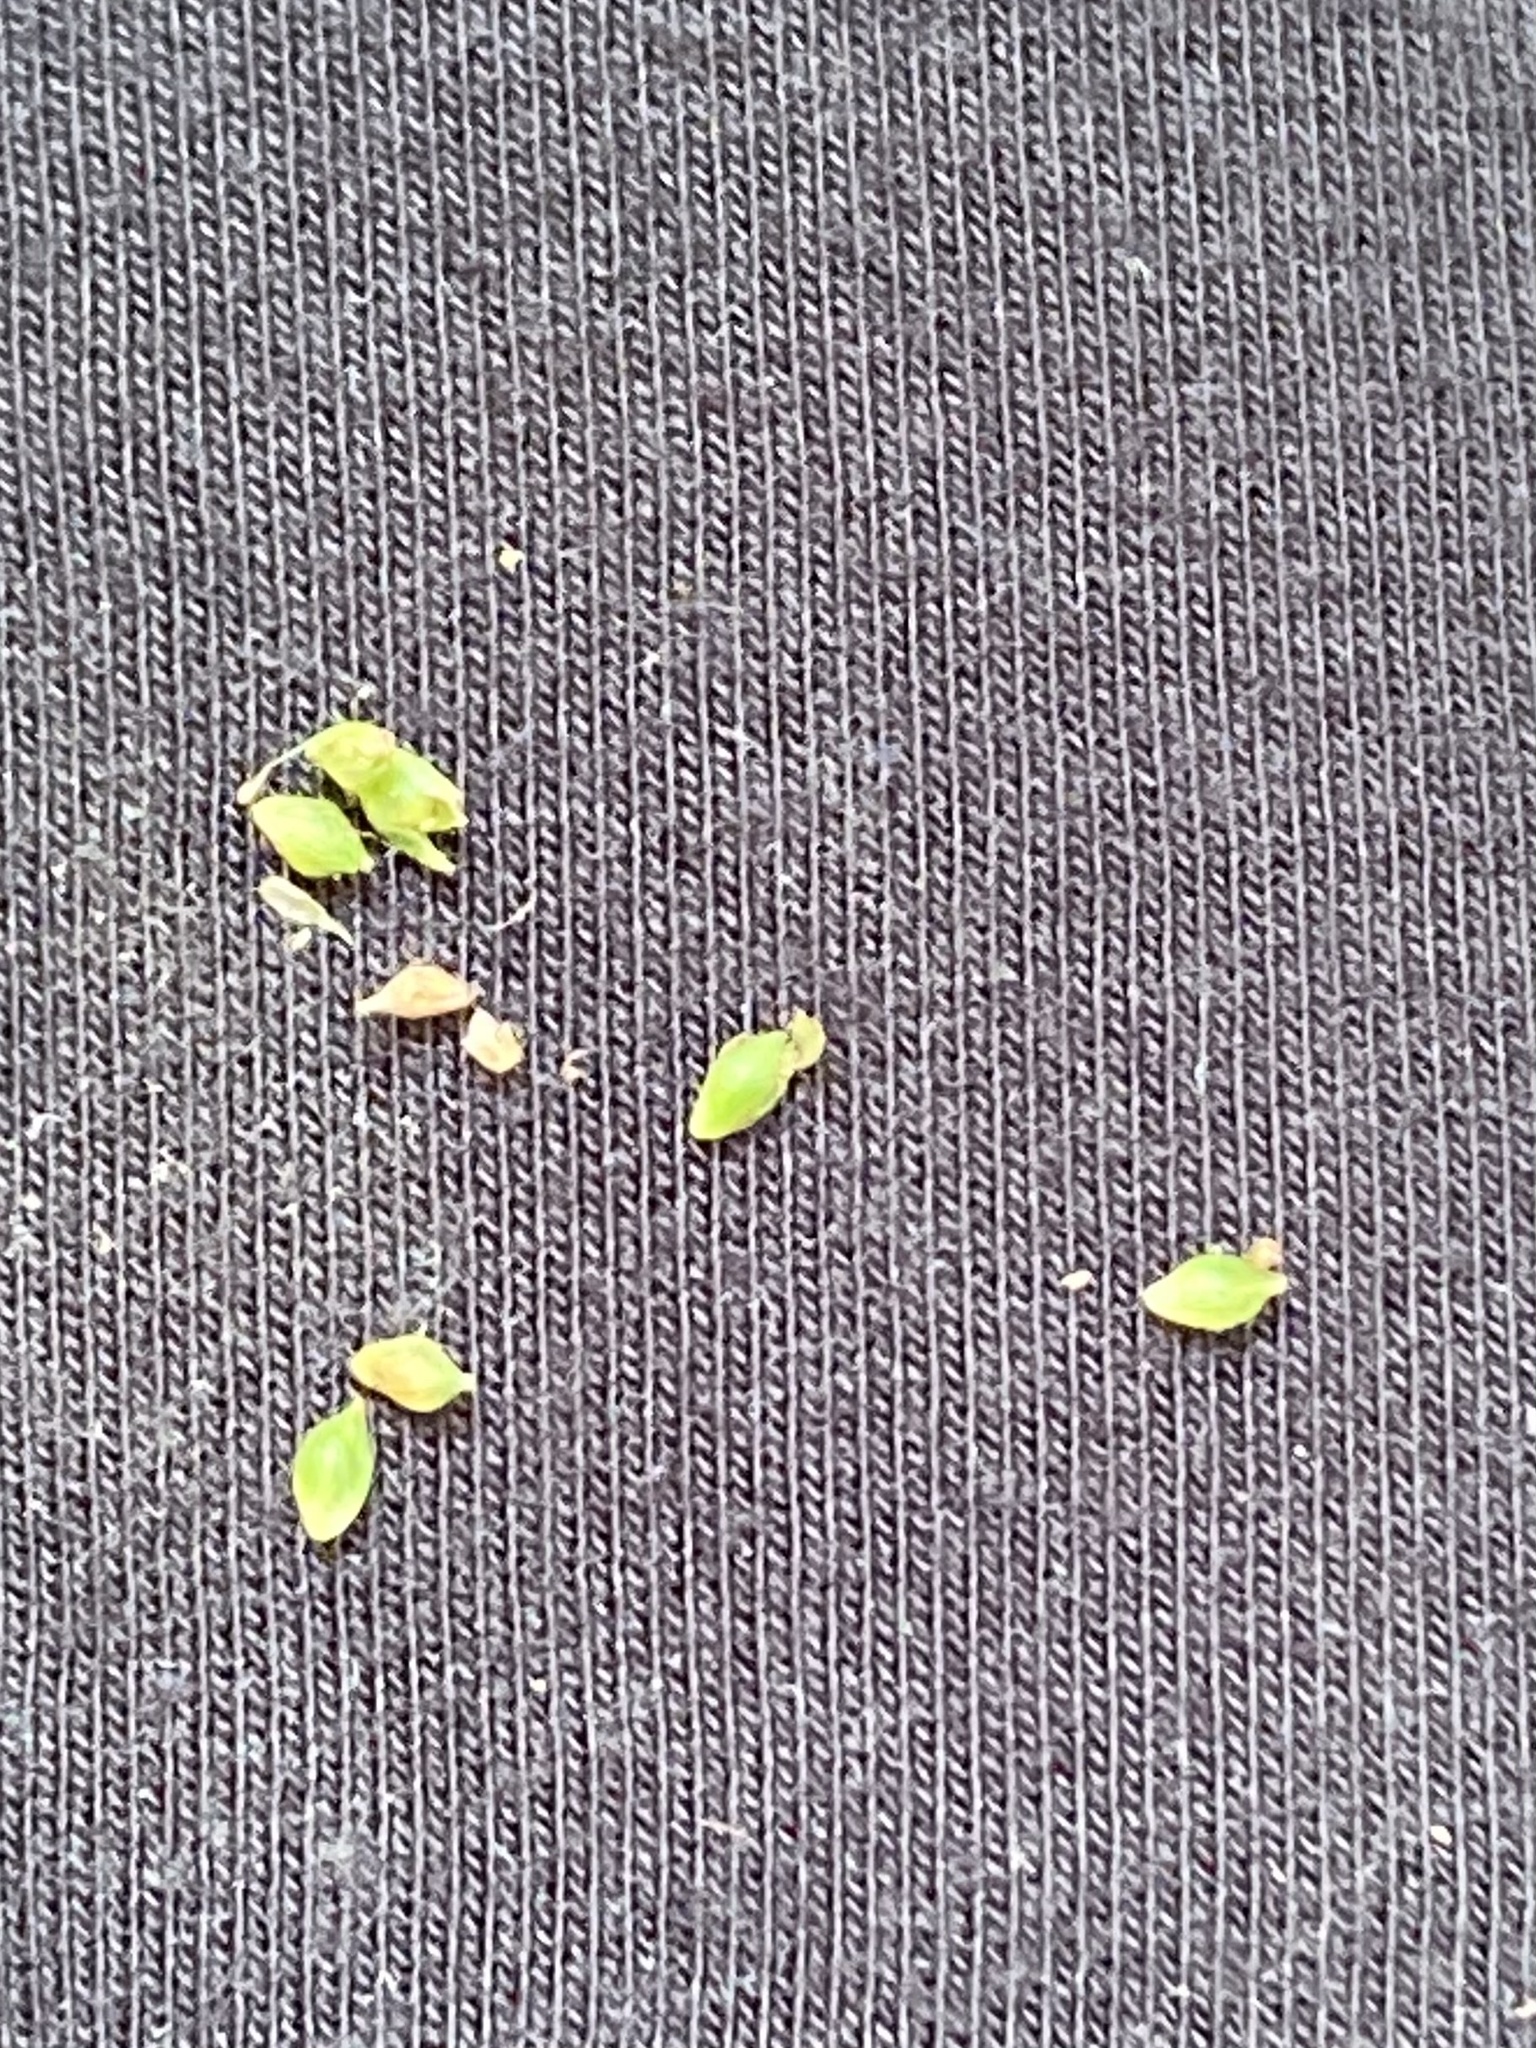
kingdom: Plantae
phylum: Tracheophyta
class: Liliopsida
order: Poales
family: Cyperaceae
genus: Carex
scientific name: Carex glaucodea
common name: Blue sedge
